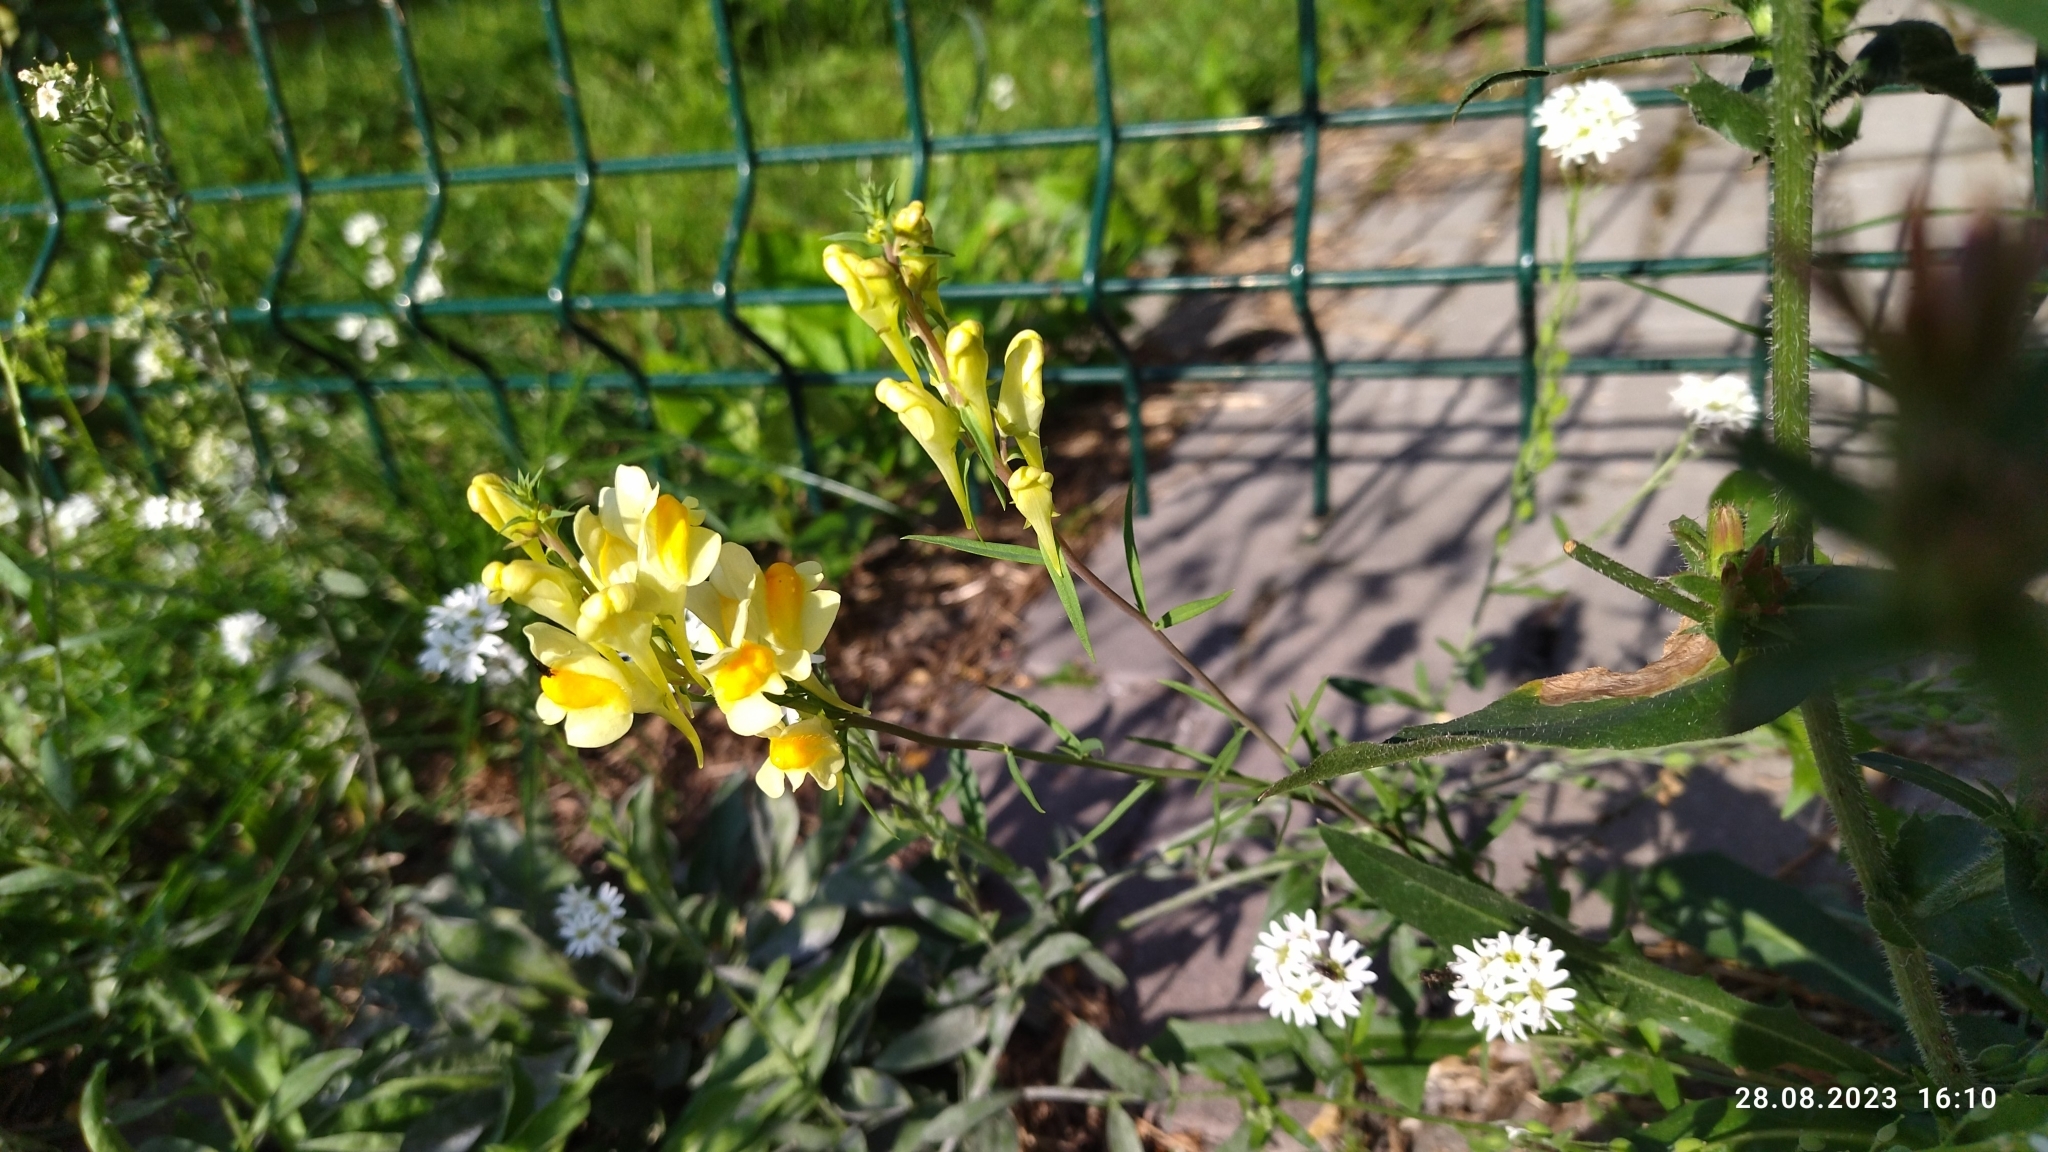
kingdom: Plantae
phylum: Tracheophyta
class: Magnoliopsida
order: Lamiales
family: Plantaginaceae
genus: Linaria
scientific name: Linaria vulgaris
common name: Butter and eggs
